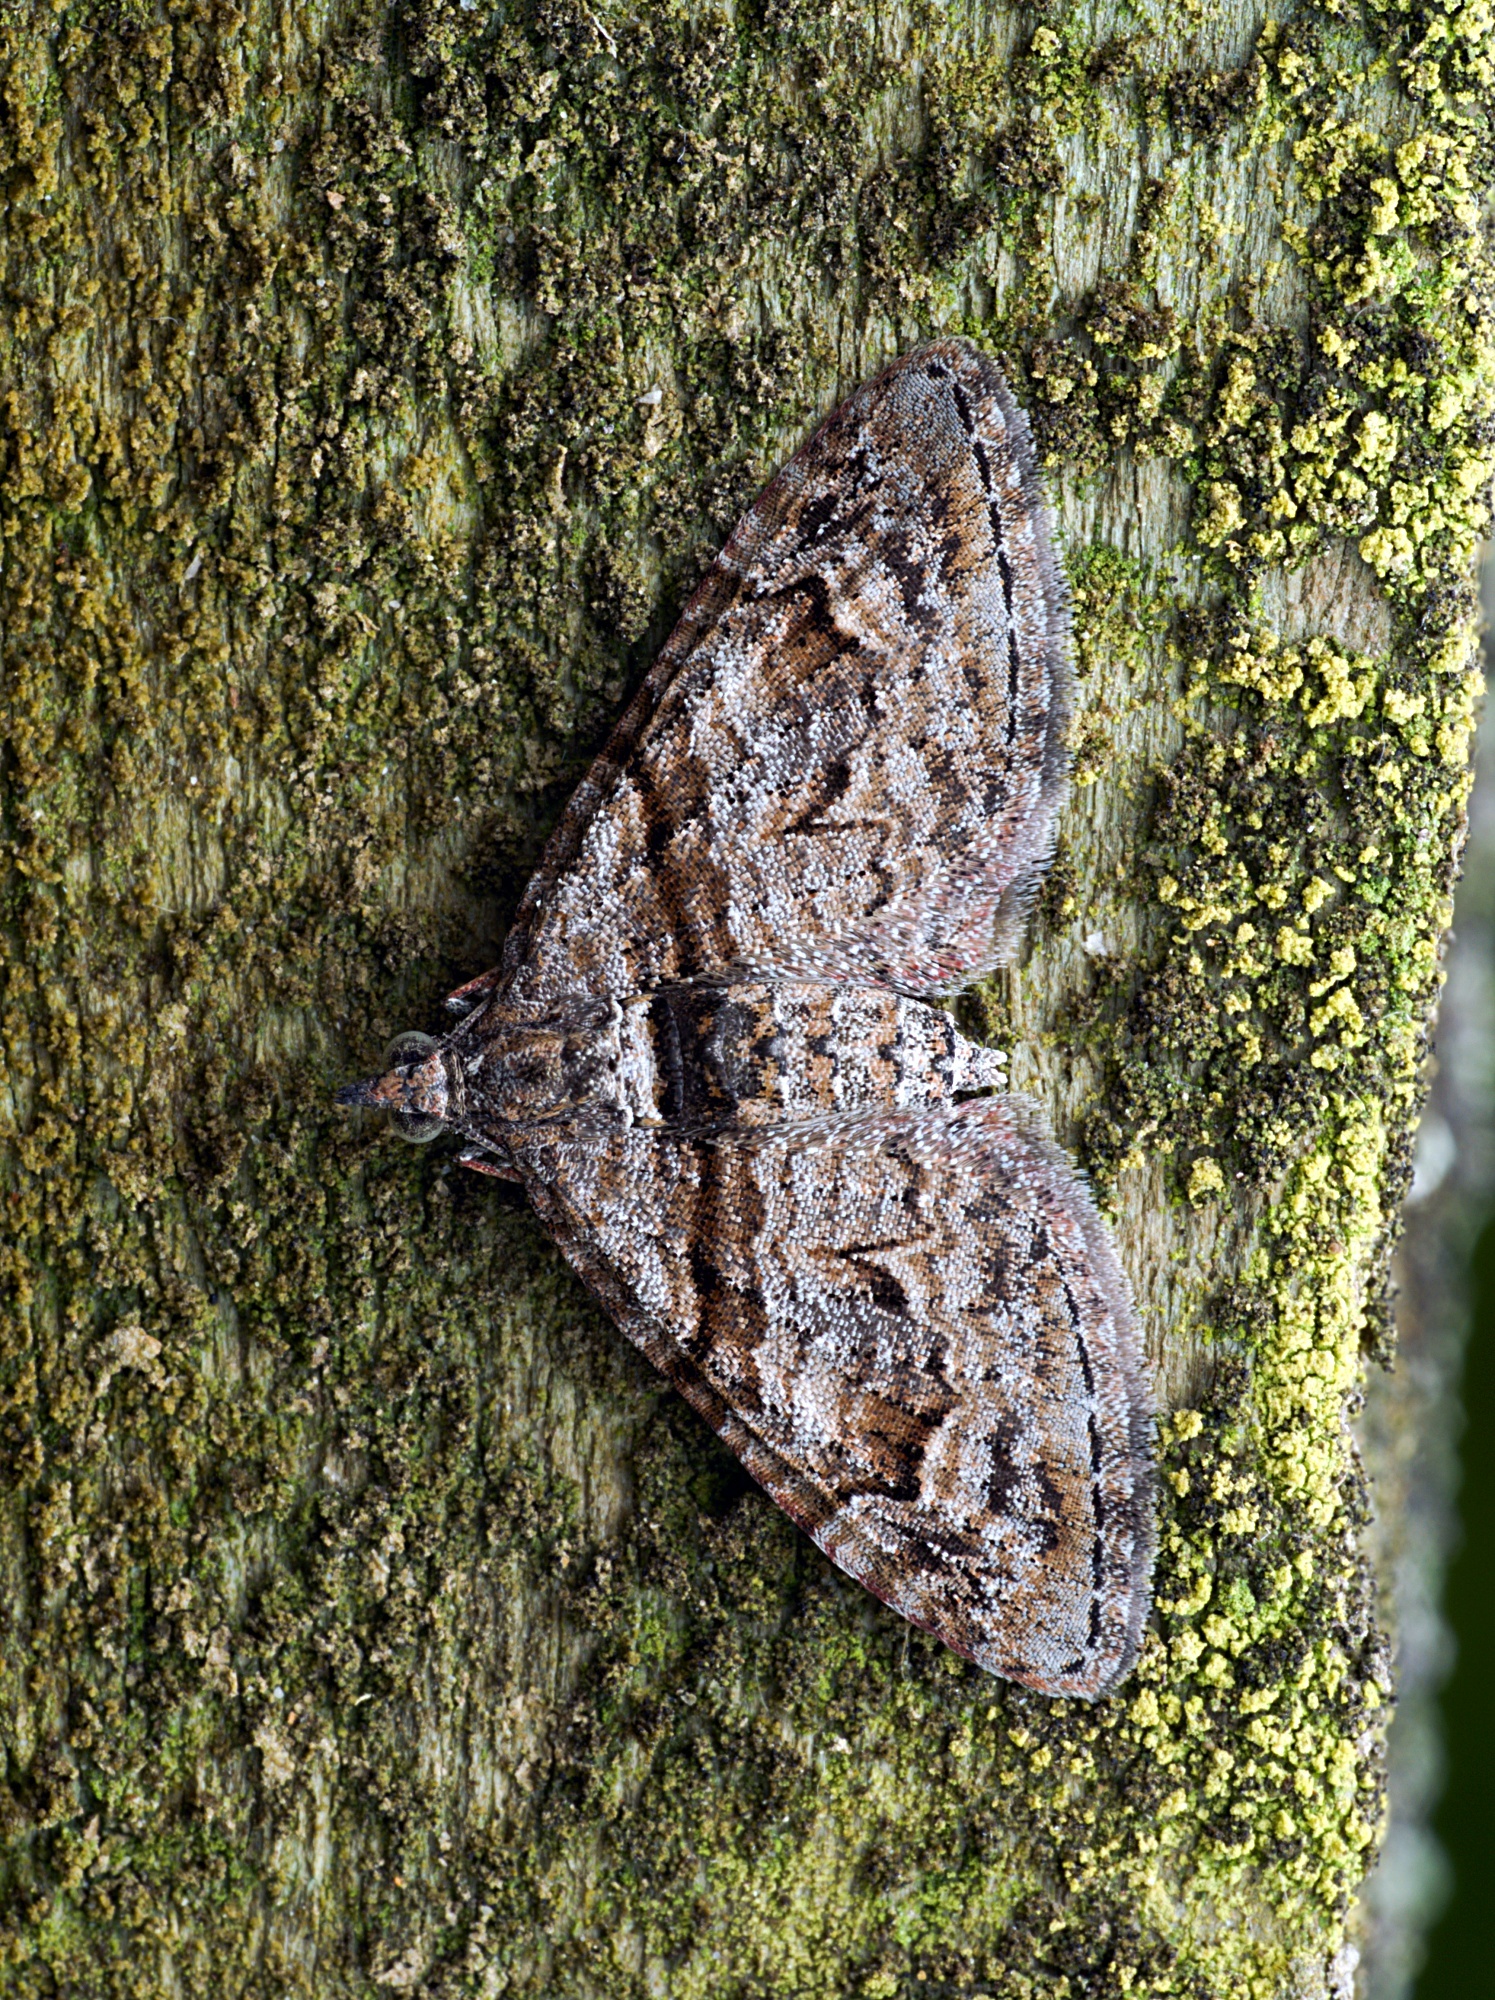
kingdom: Animalia
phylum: Arthropoda
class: Insecta
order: Lepidoptera
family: Geometridae
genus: Phrissogonus
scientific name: Phrissogonus laticostata
